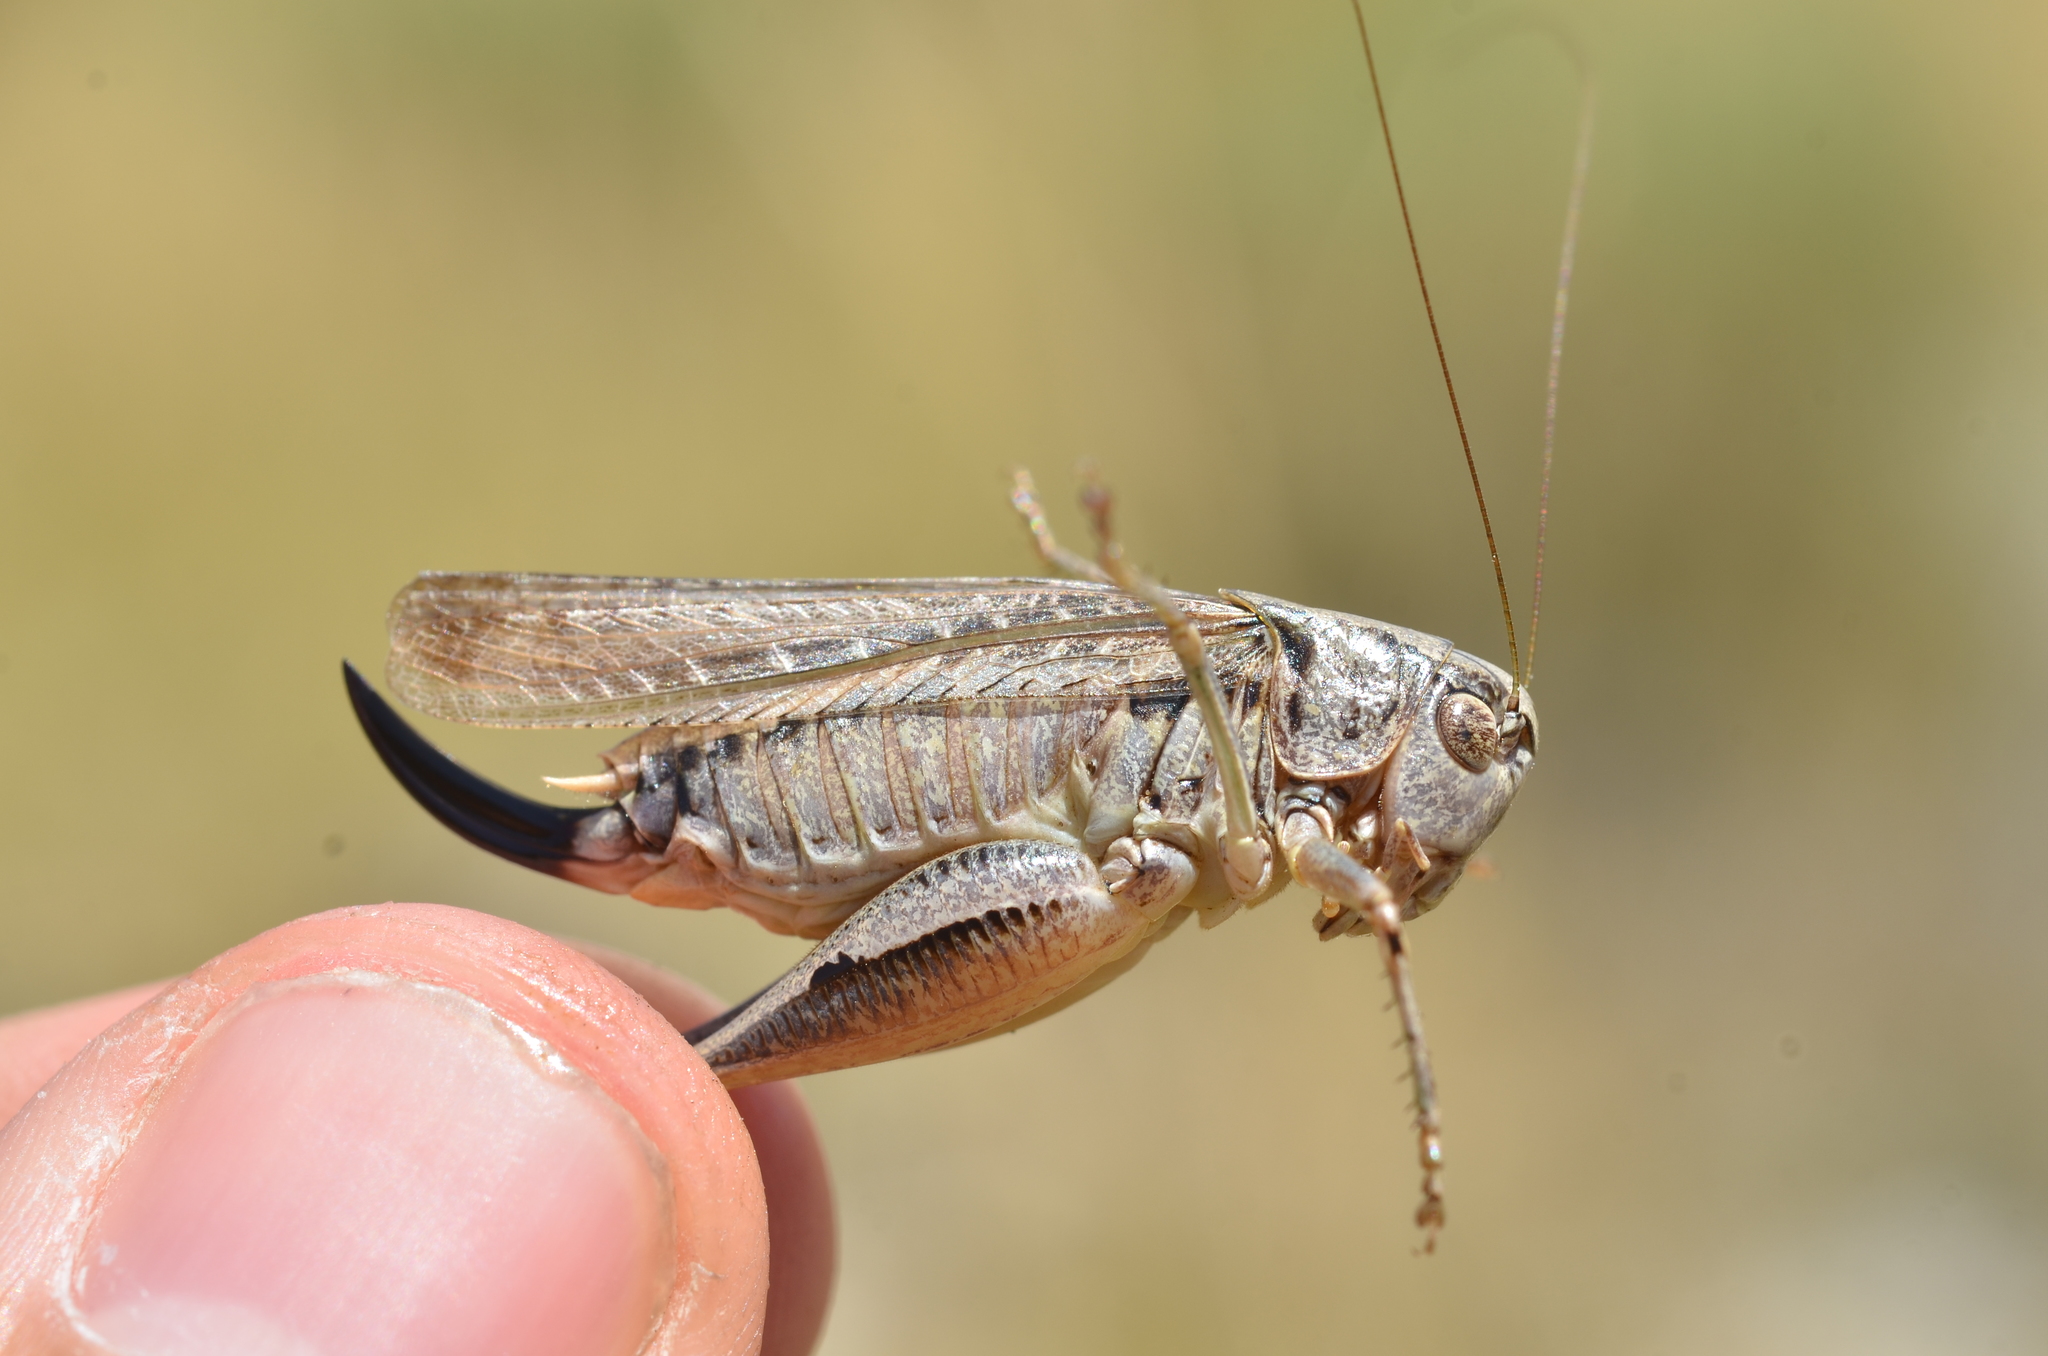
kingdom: Animalia
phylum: Arthropoda
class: Insecta
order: Orthoptera
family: Tettigoniidae
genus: Platycleis
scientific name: Platycleis albopunctata
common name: Grey bush-cricket
